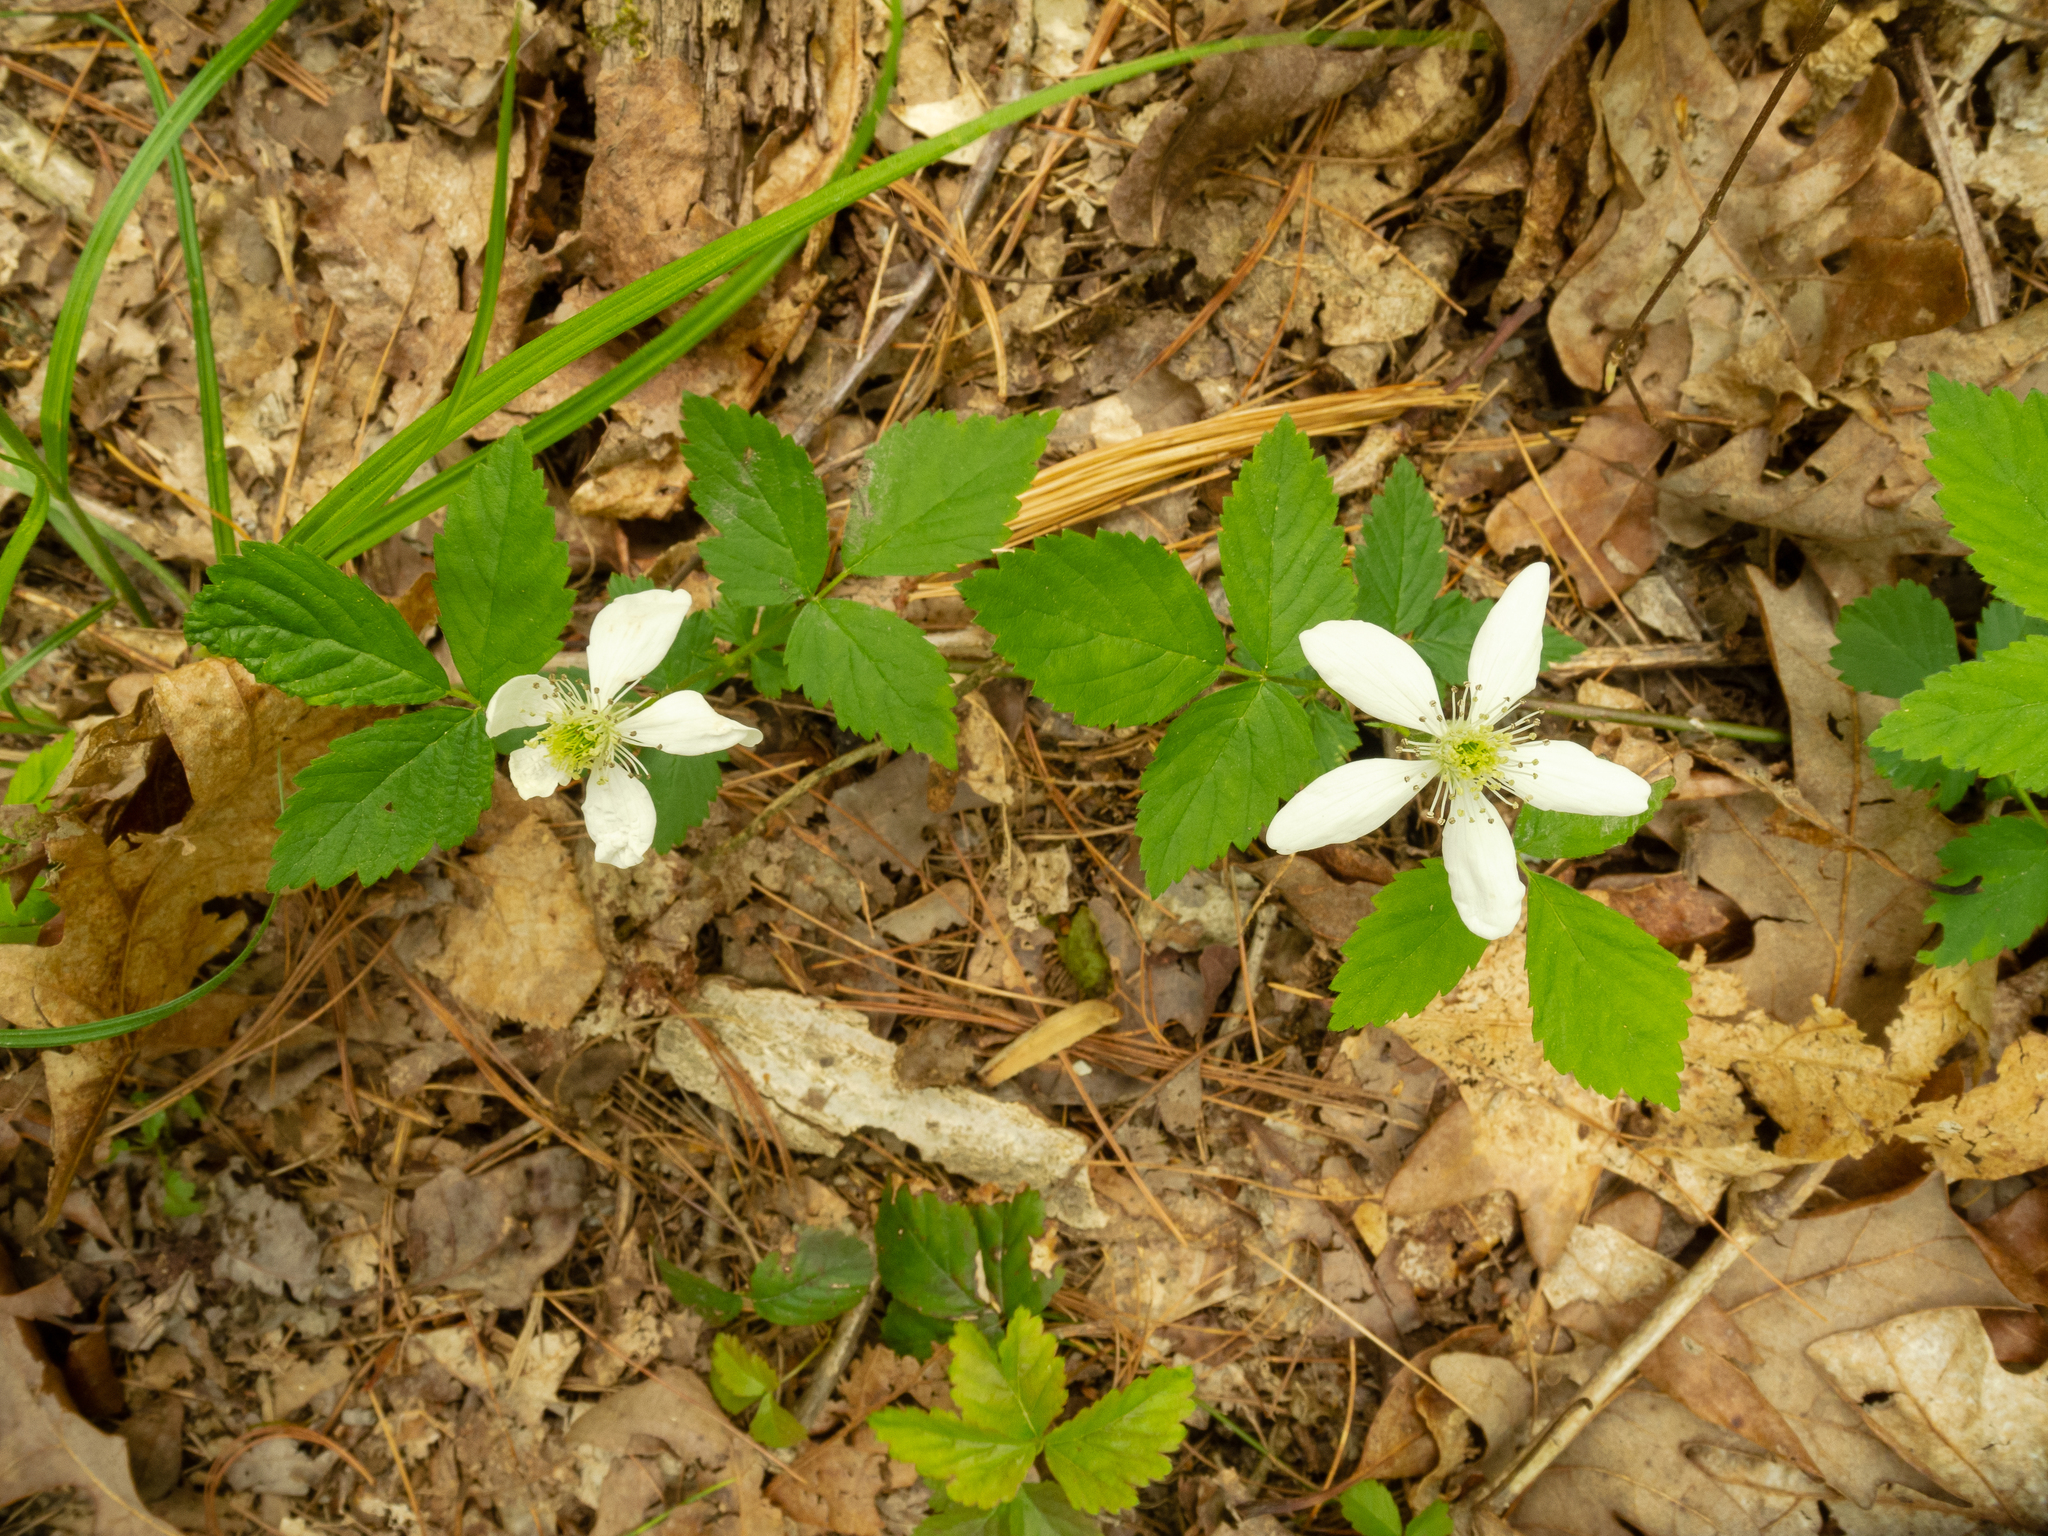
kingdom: Plantae
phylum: Tracheophyta
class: Magnoliopsida
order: Rosales
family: Rosaceae
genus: Rubus
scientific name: Rubus flagellaris
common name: American dewberry
